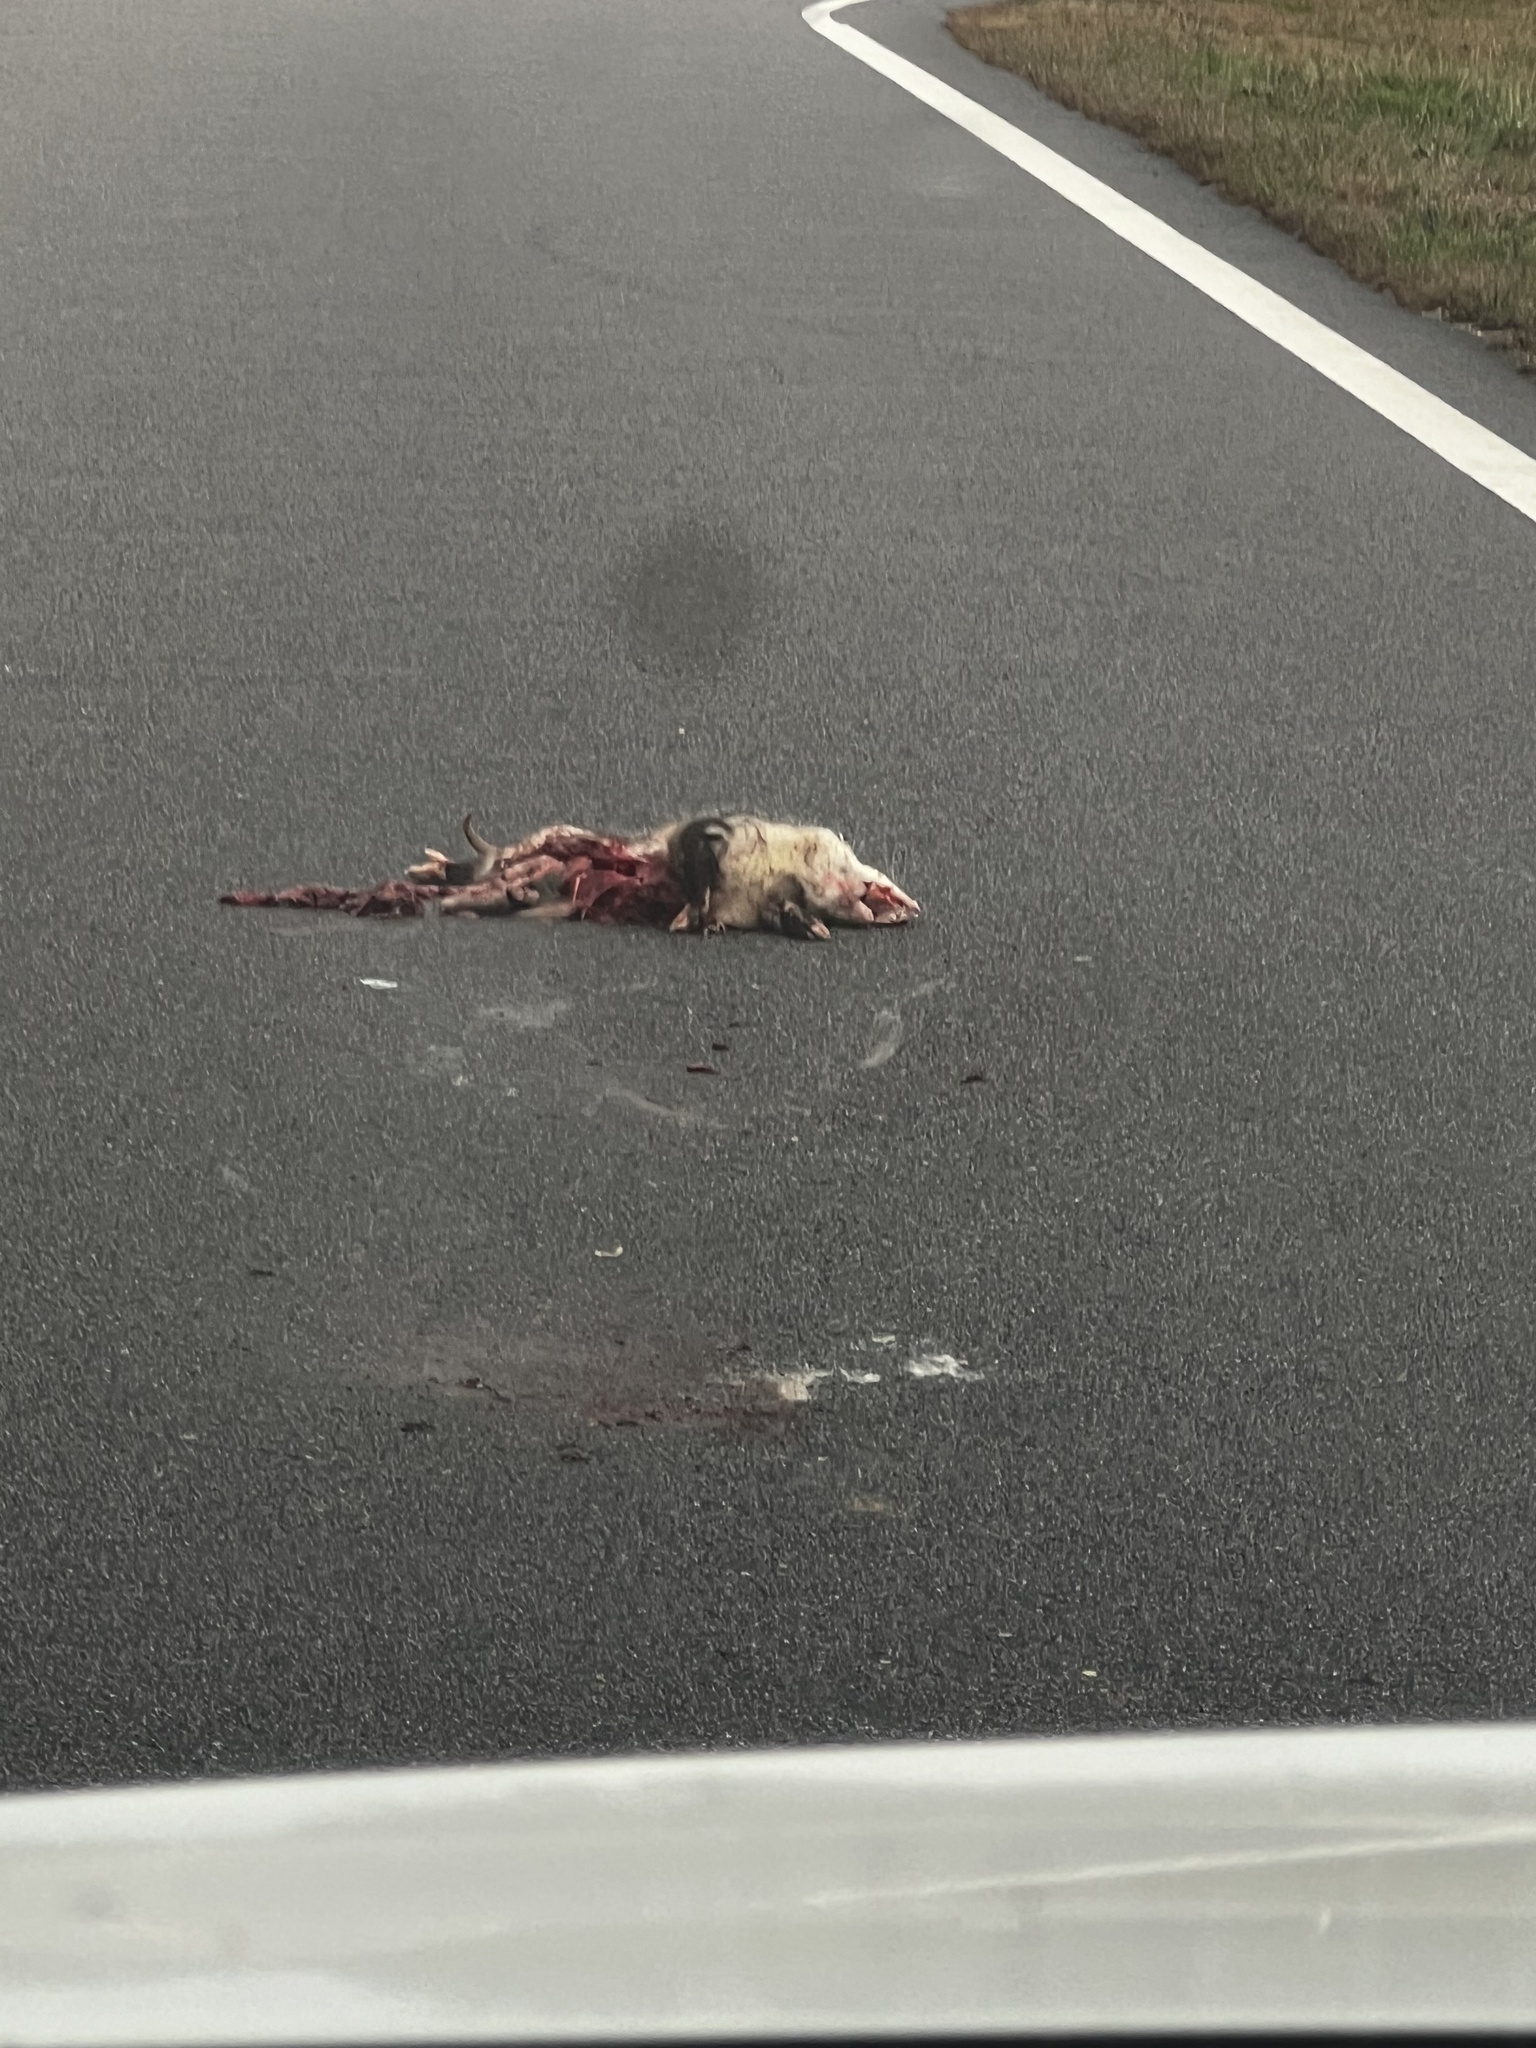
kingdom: Animalia
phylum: Chordata
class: Mammalia
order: Didelphimorphia
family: Didelphidae
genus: Didelphis
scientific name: Didelphis virginiana
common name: Virginia opossum
